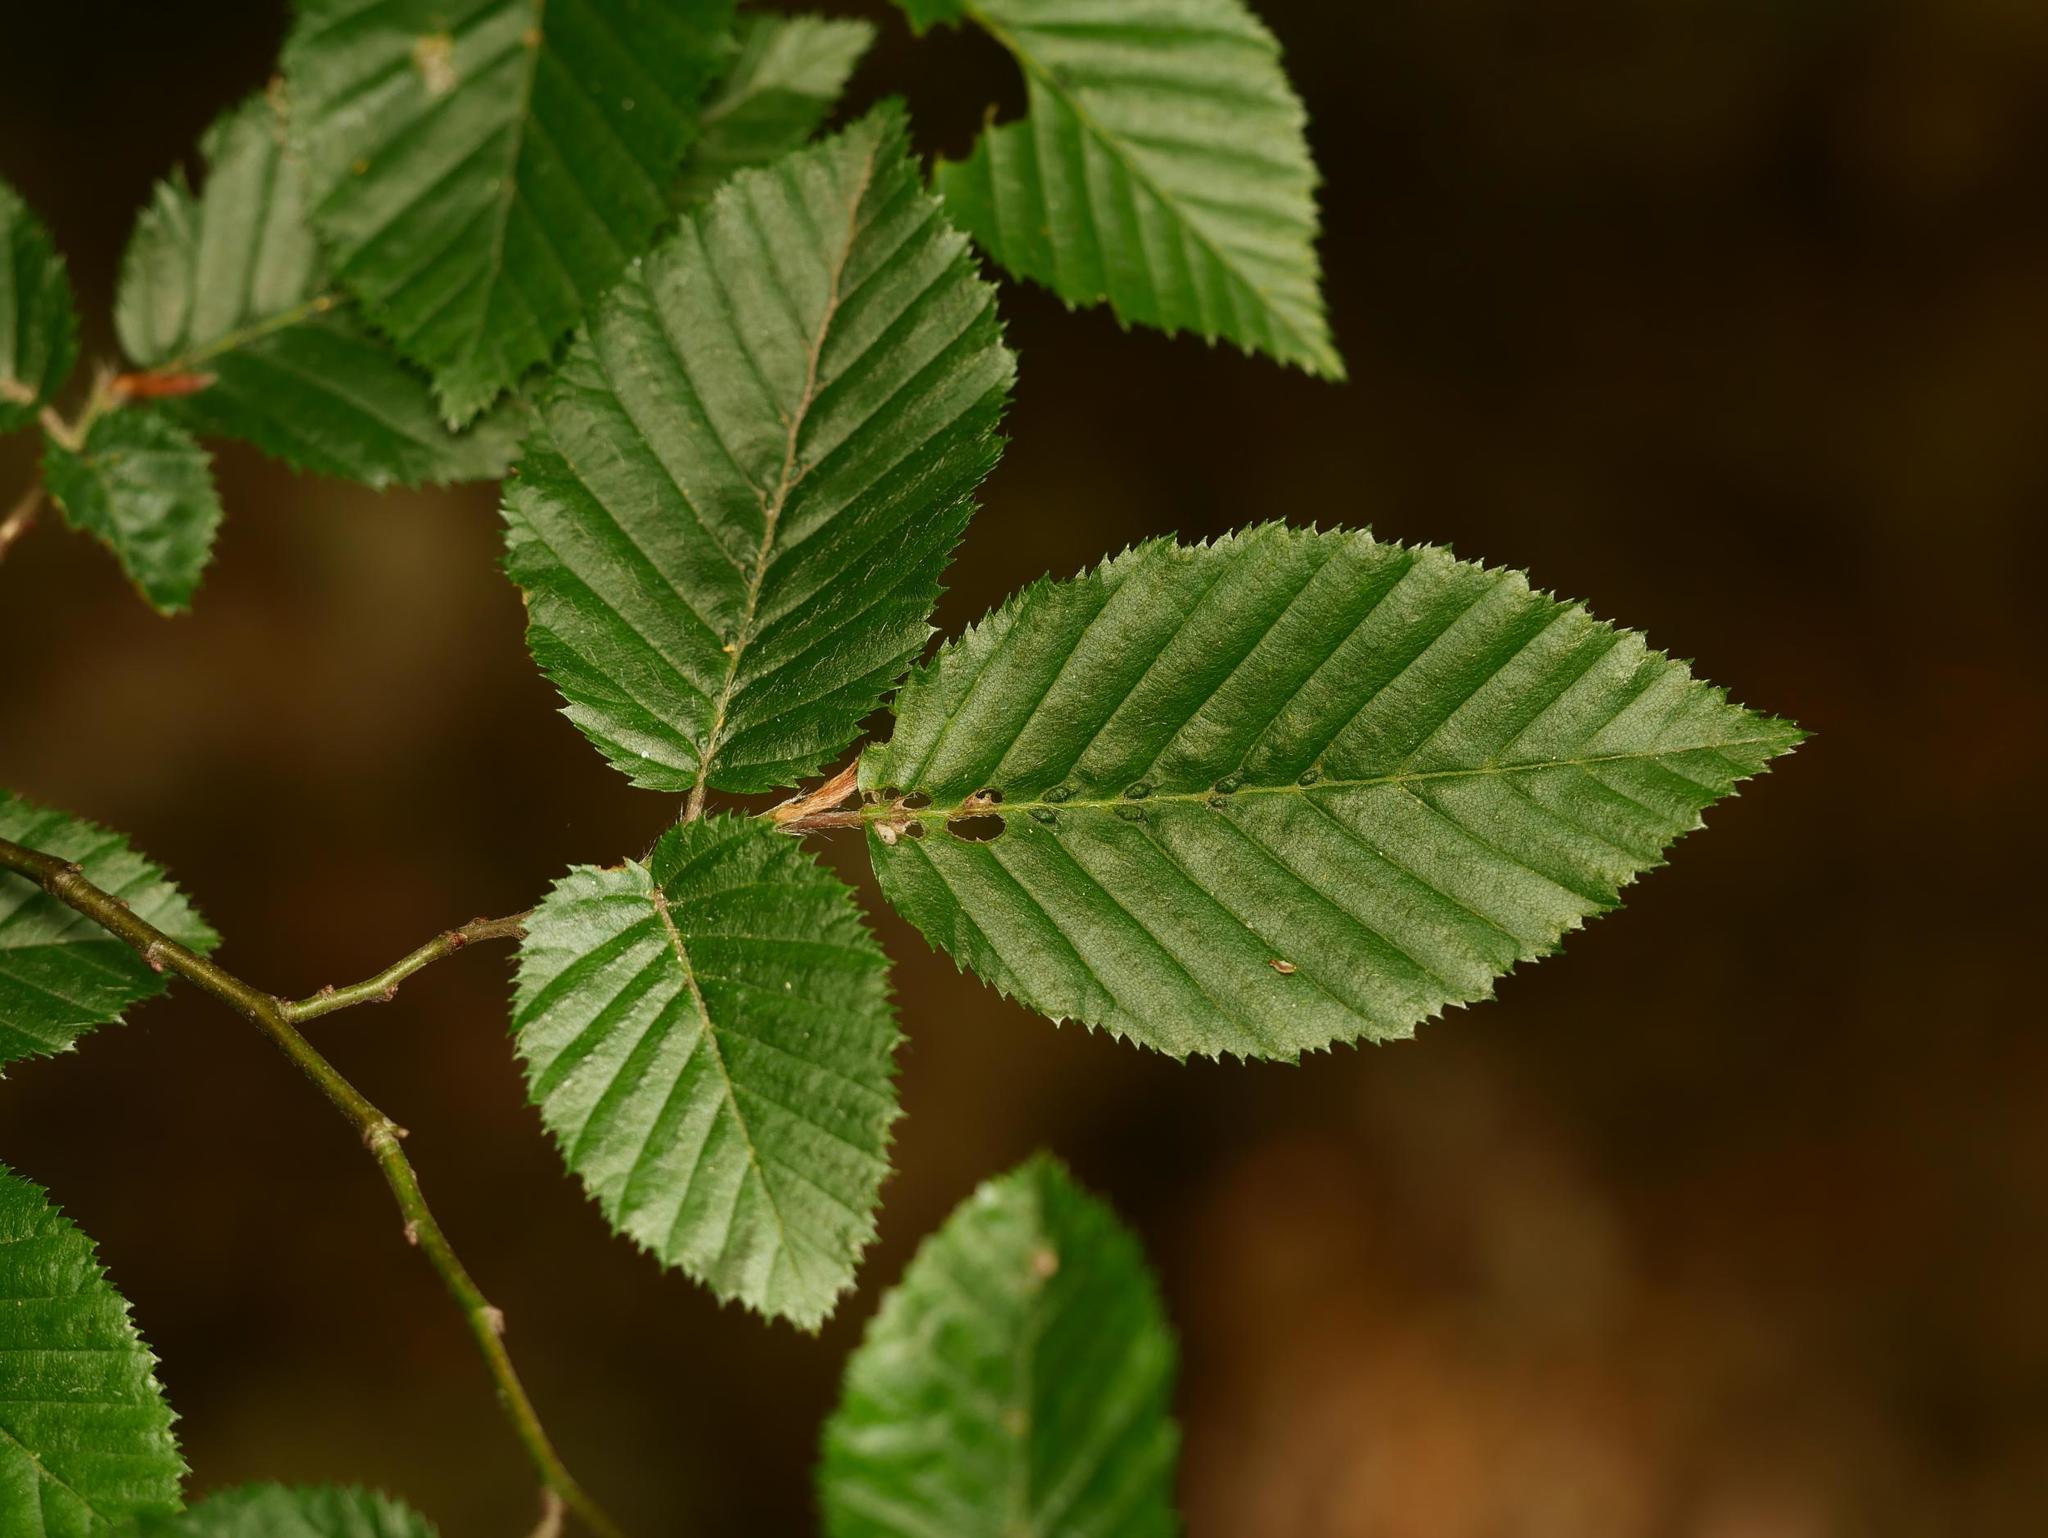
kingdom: Plantae
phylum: Tracheophyta
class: Magnoliopsida
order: Fagales
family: Betulaceae
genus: Carpinus
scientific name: Carpinus betulus
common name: Hornbeam
